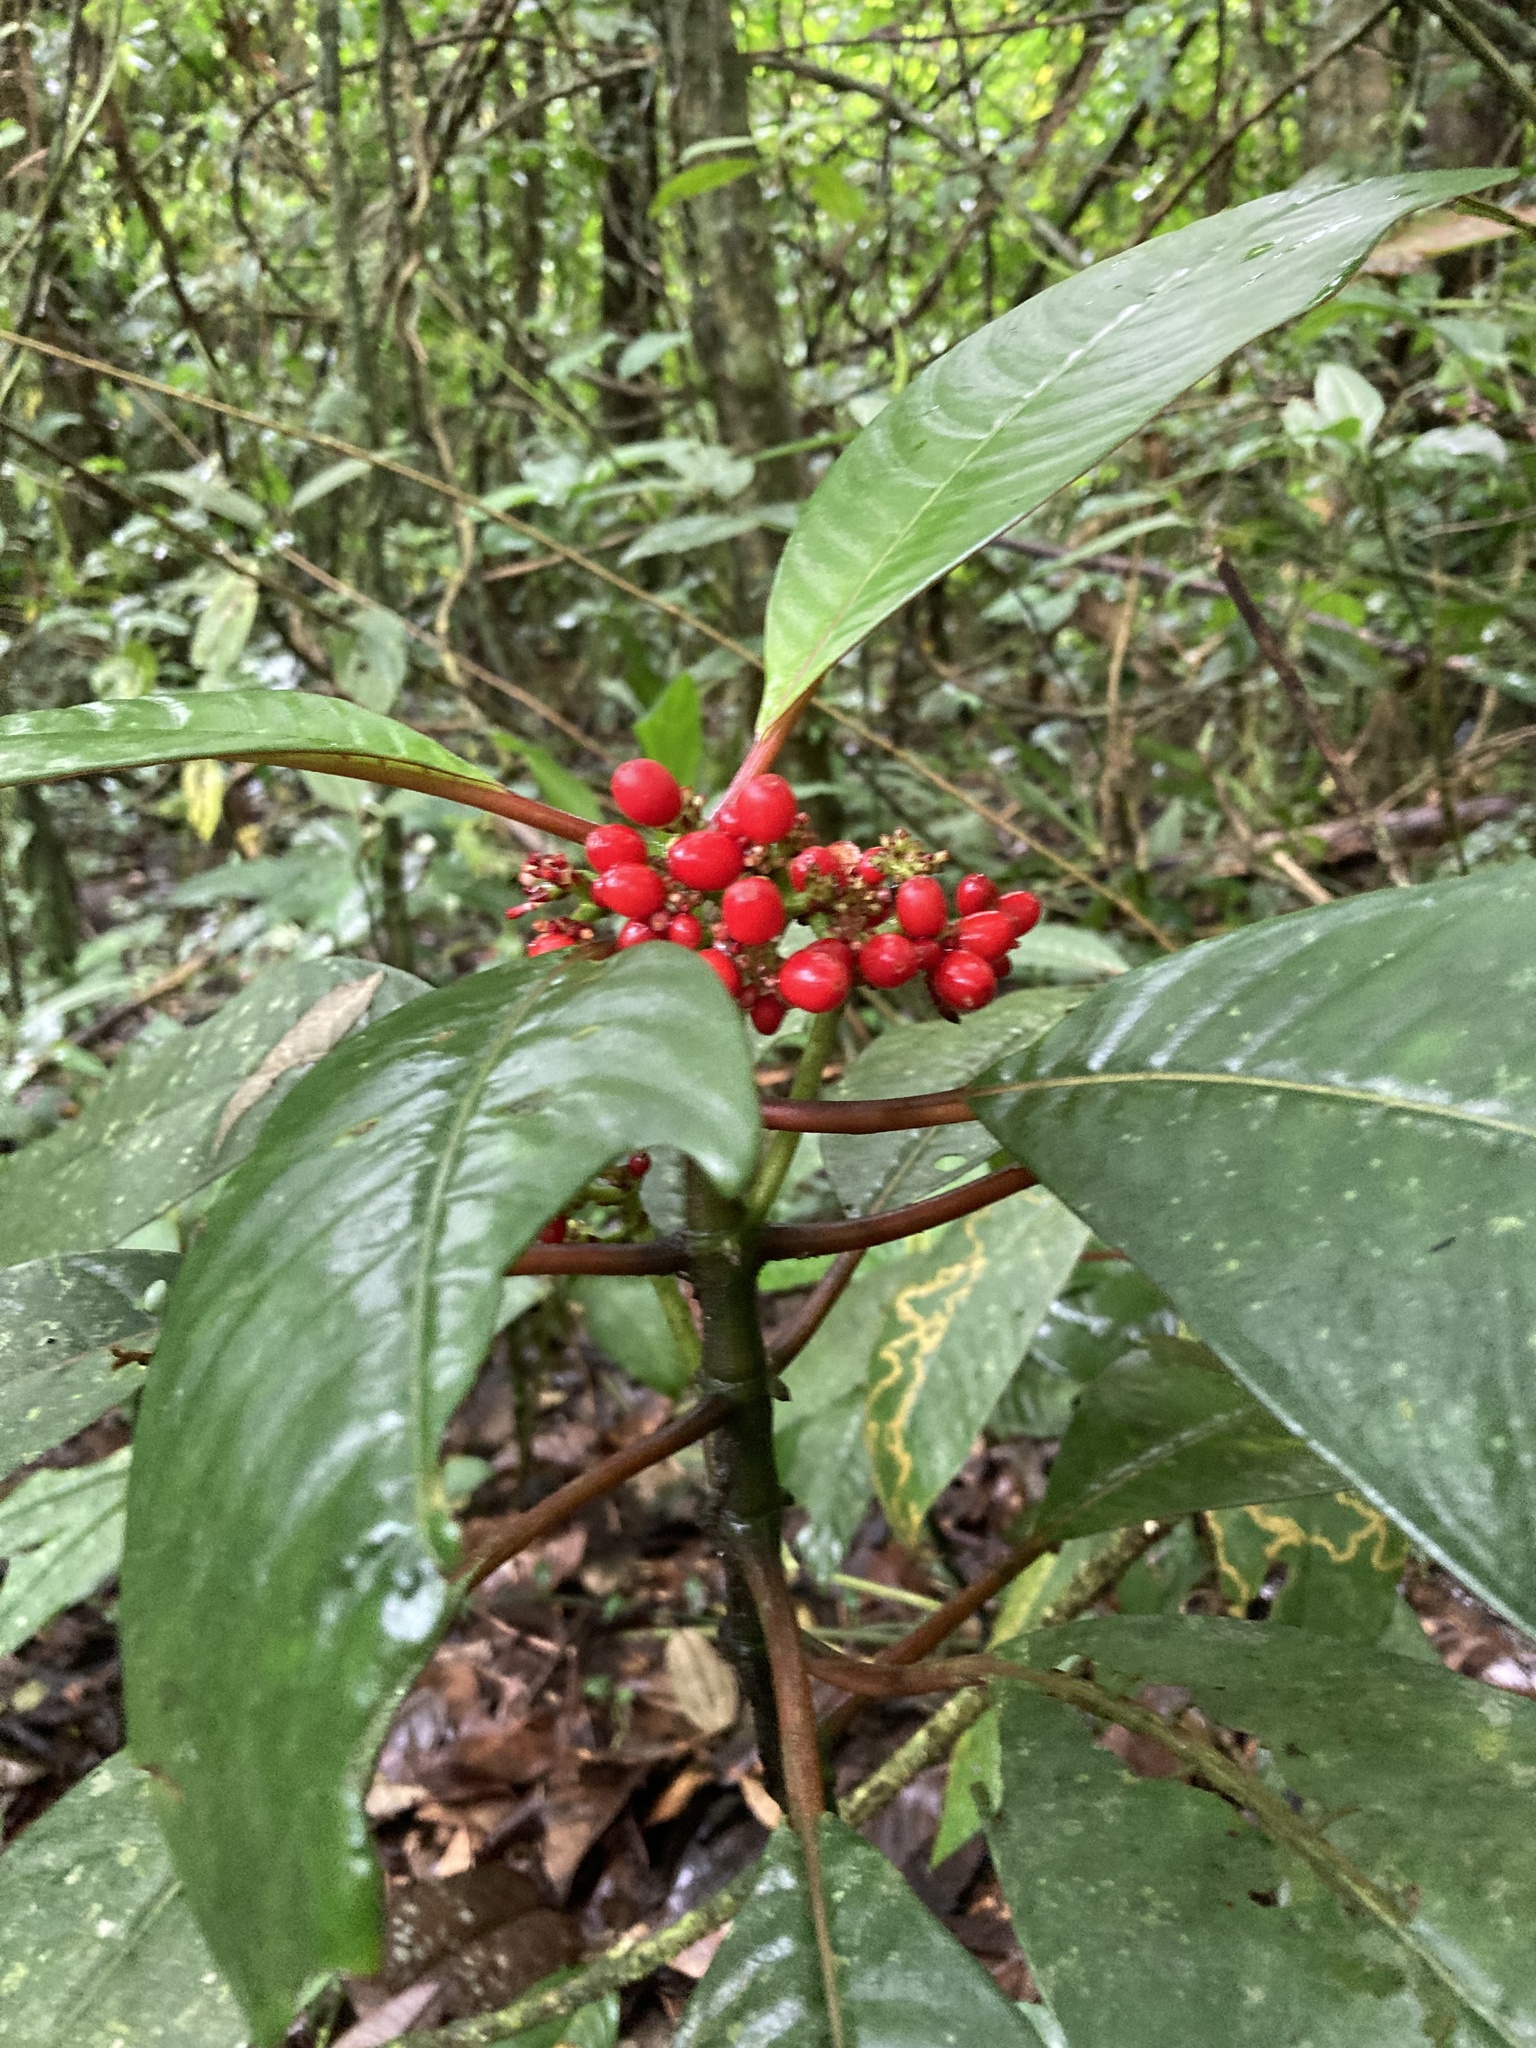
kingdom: Plantae
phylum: Tracheophyta
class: Magnoliopsida
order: Gentianales
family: Rubiaceae
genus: Notopleura
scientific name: Notopleura uliginosa
